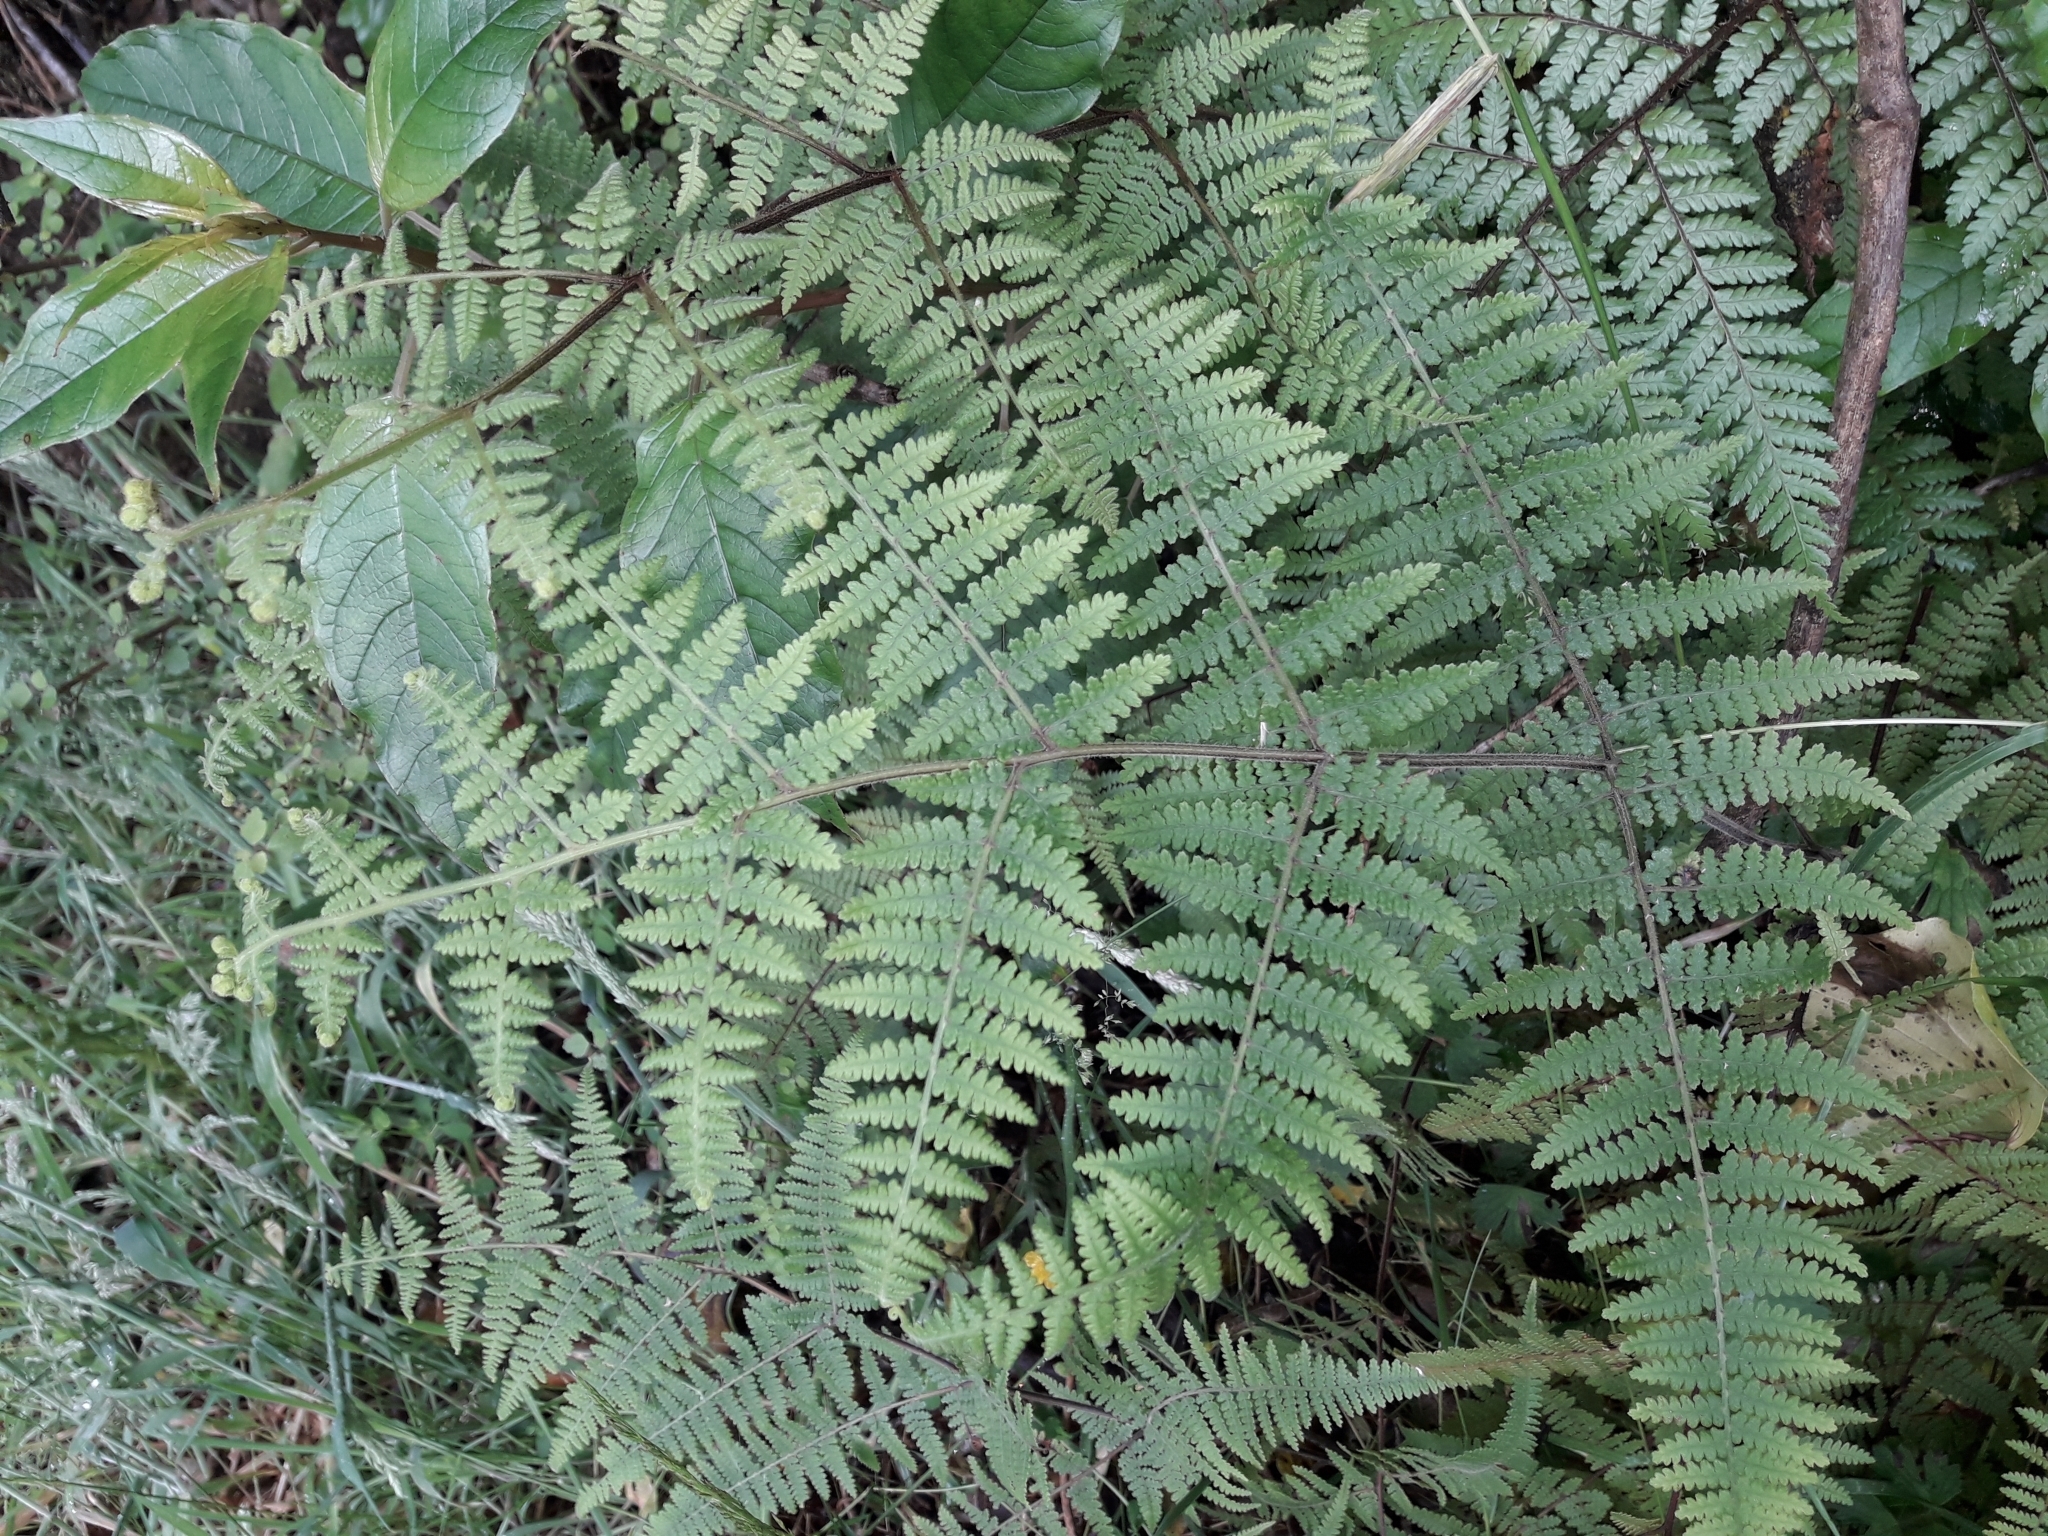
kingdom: Plantae
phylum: Tracheophyta
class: Polypodiopsida
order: Polypodiales
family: Dennstaedtiaceae
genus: Hypolepis
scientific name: Hypolepis rugosula
